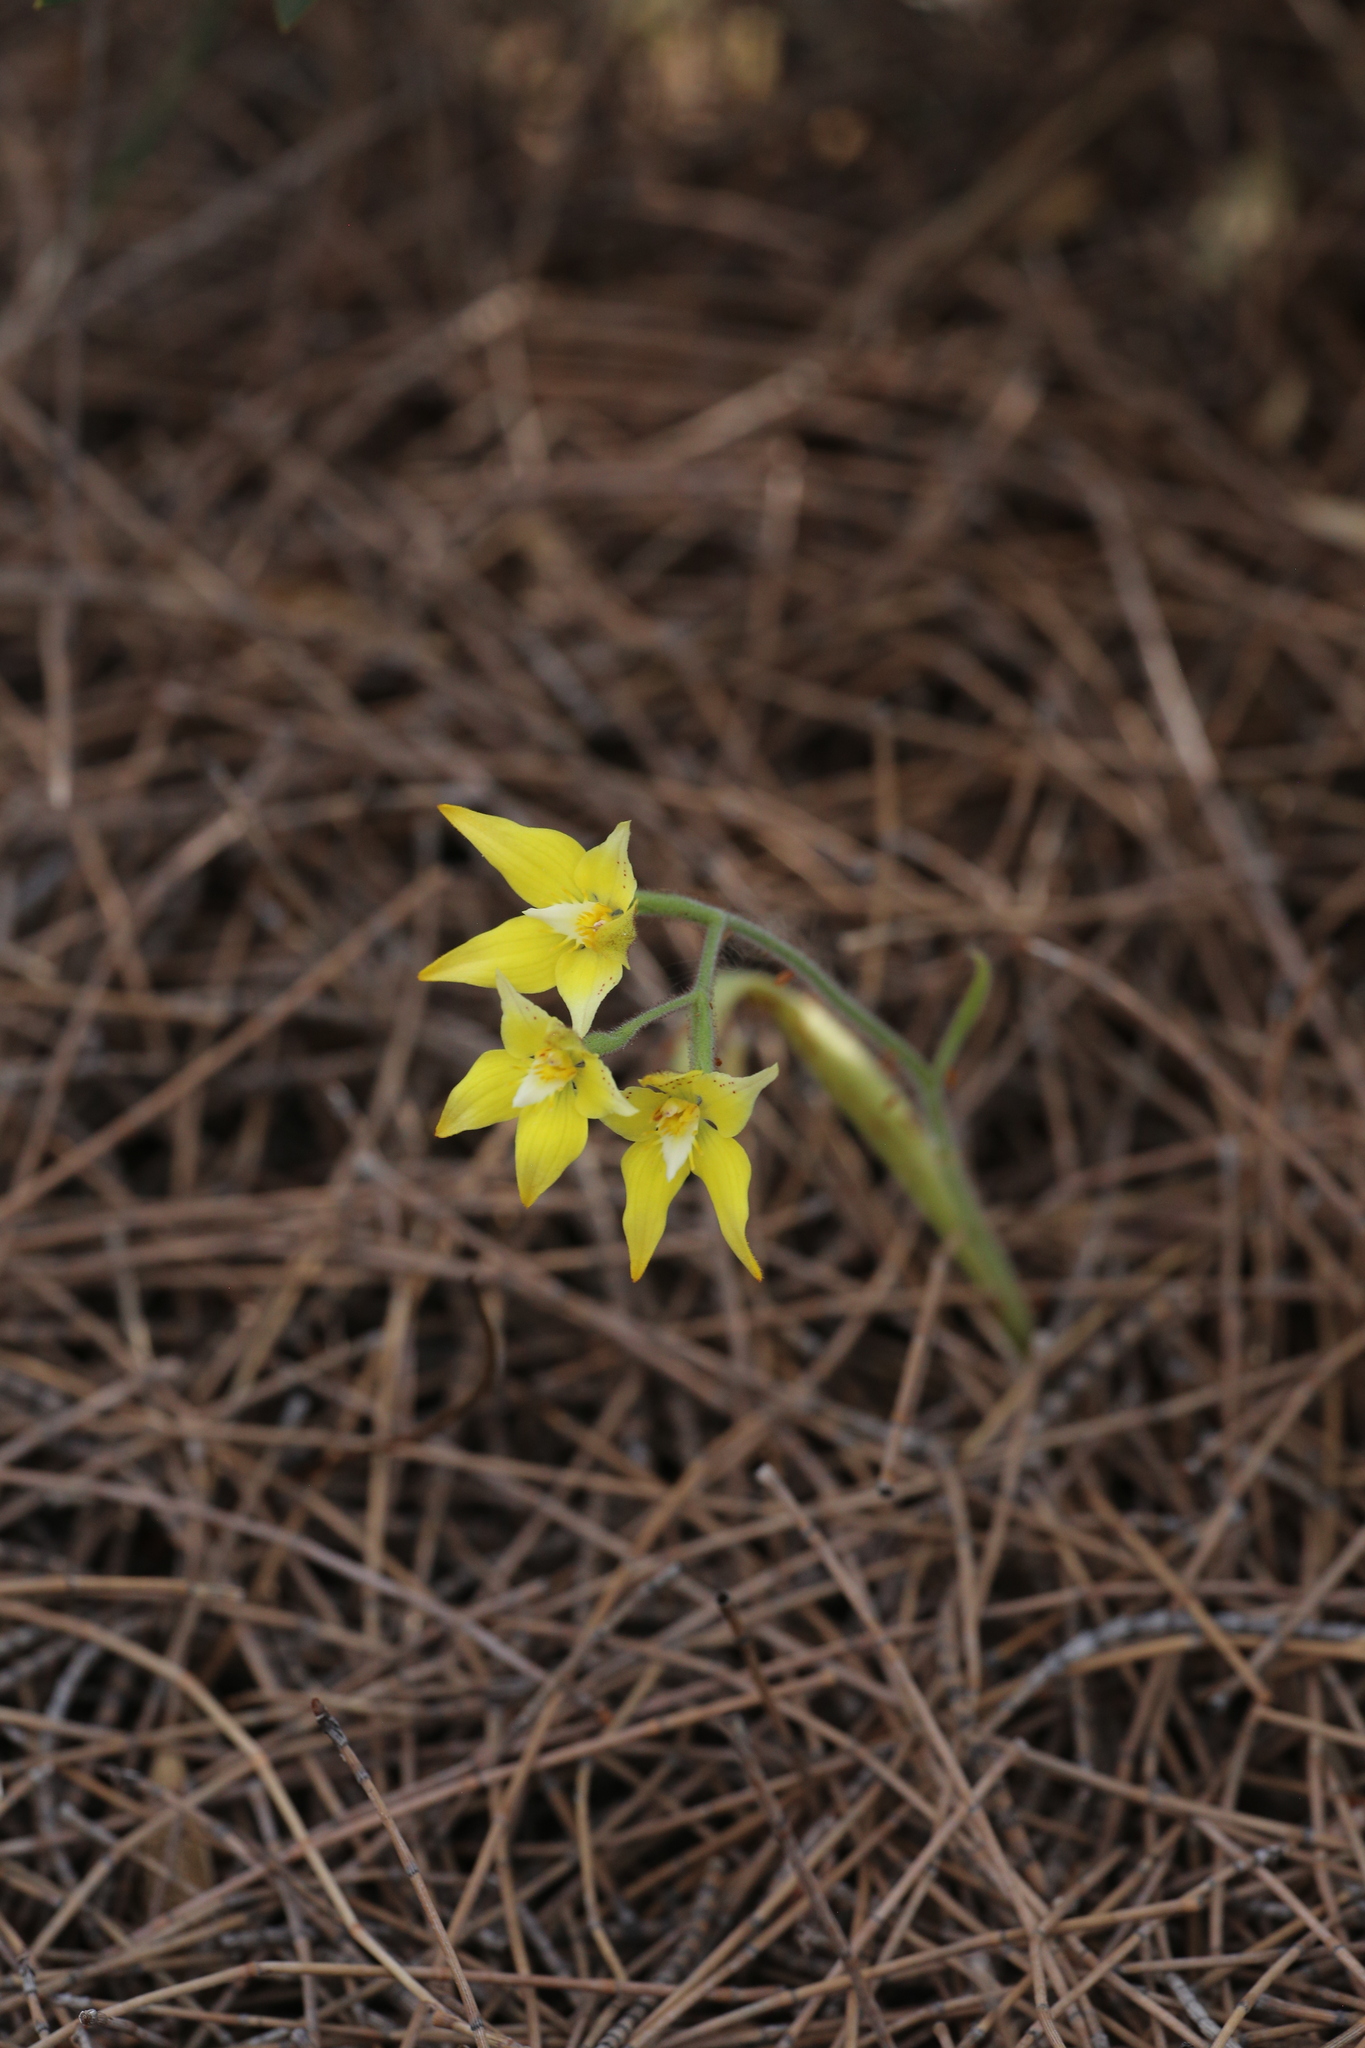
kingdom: Plantae
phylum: Tracheophyta
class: Liliopsida
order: Asparagales
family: Orchidaceae
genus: Caladenia
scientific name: Caladenia flava
